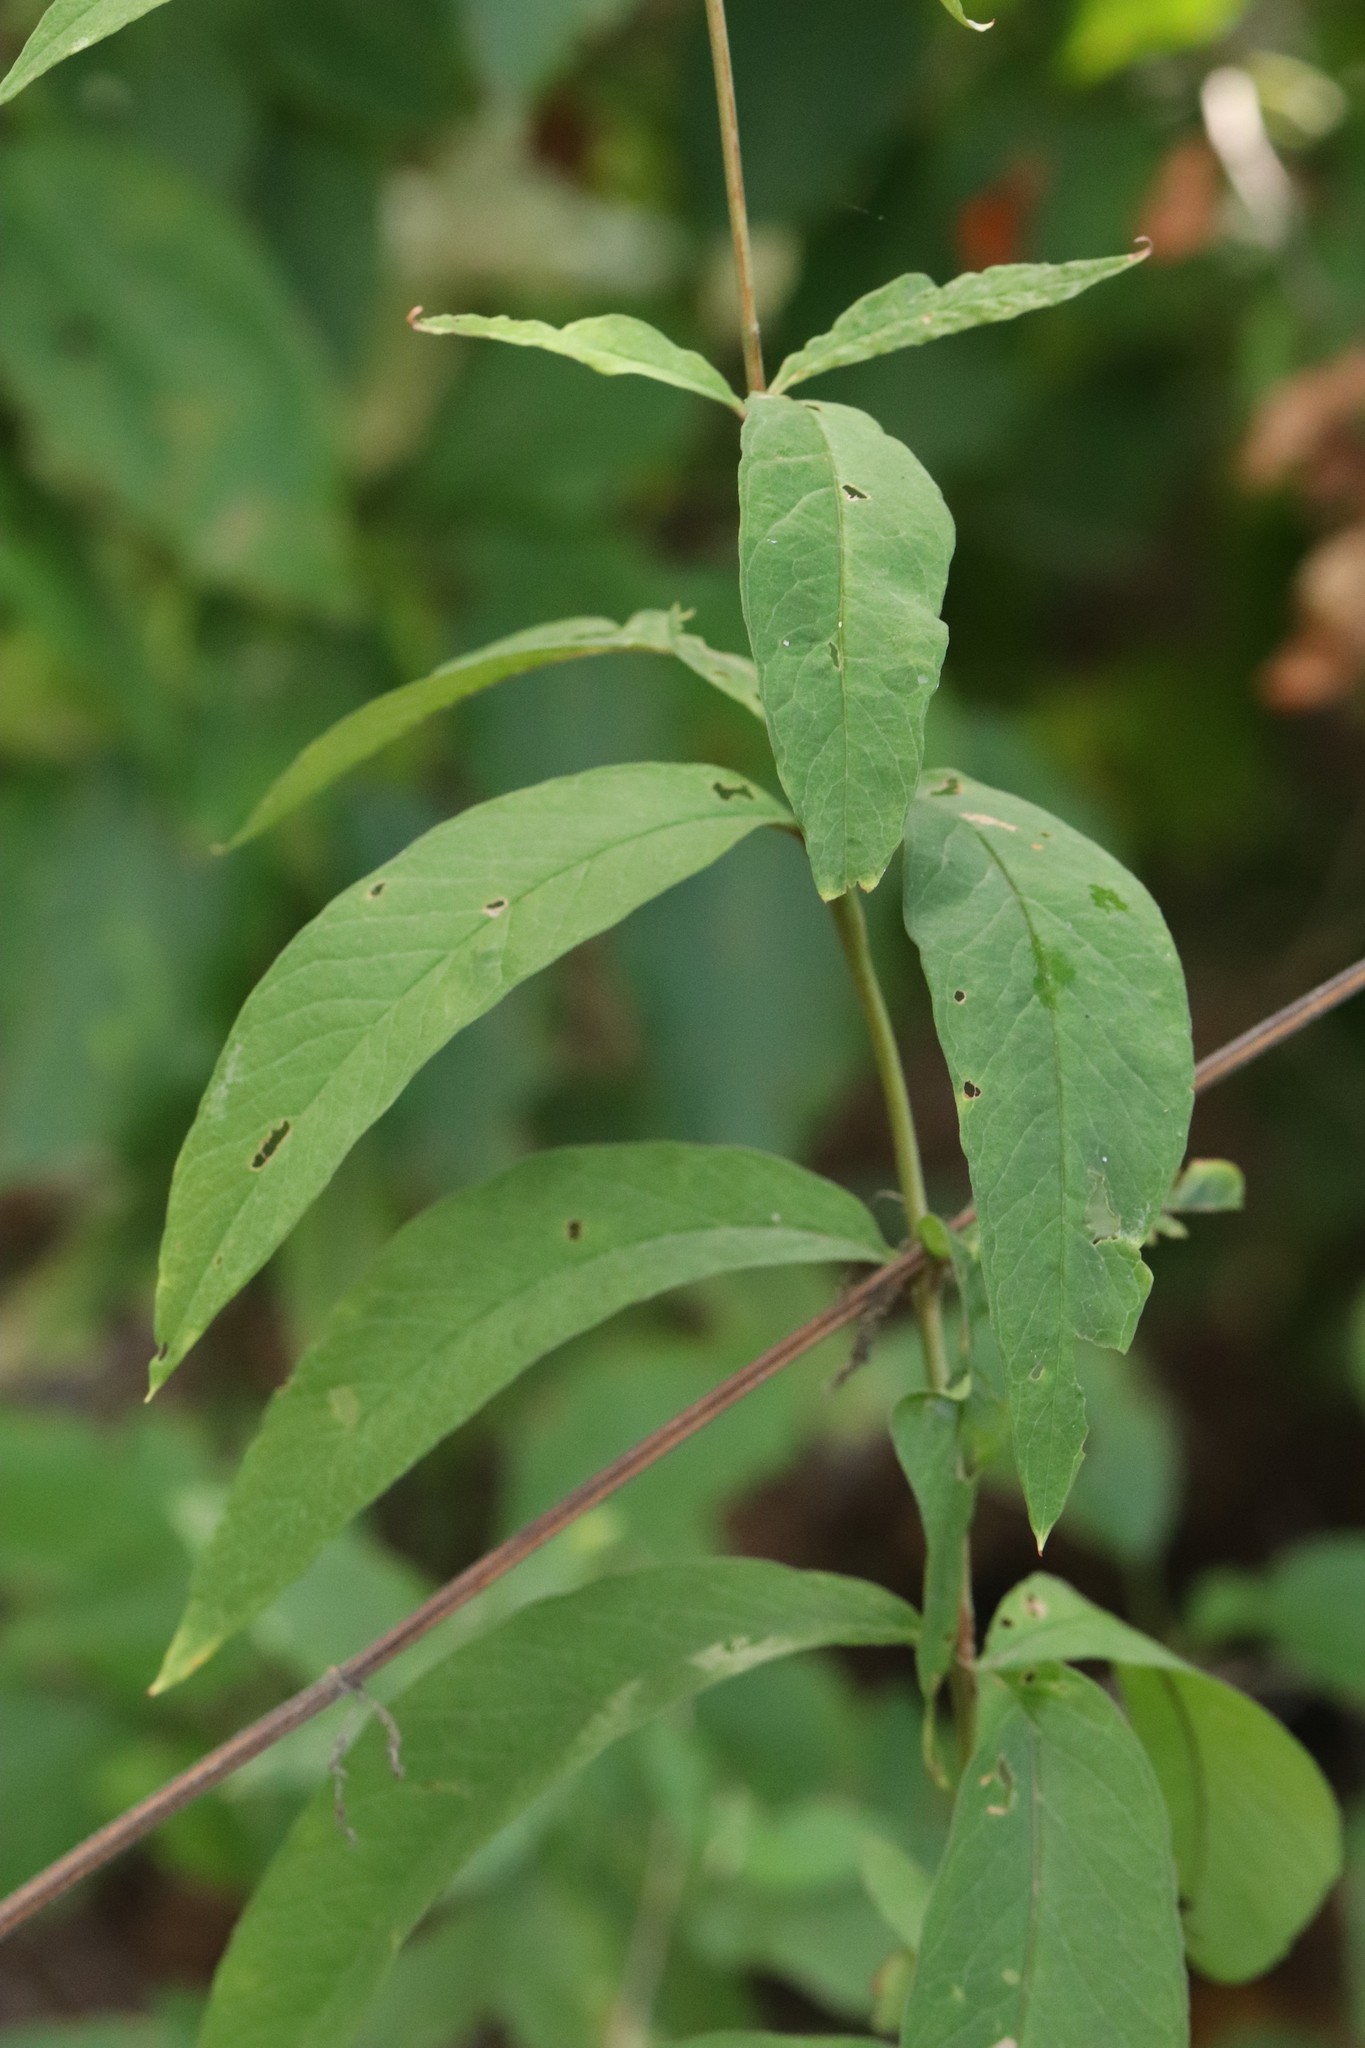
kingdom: Plantae
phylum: Tracheophyta
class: Magnoliopsida
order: Ericales
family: Primulaceae
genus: Lysimachia
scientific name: Lysimachia davurica
